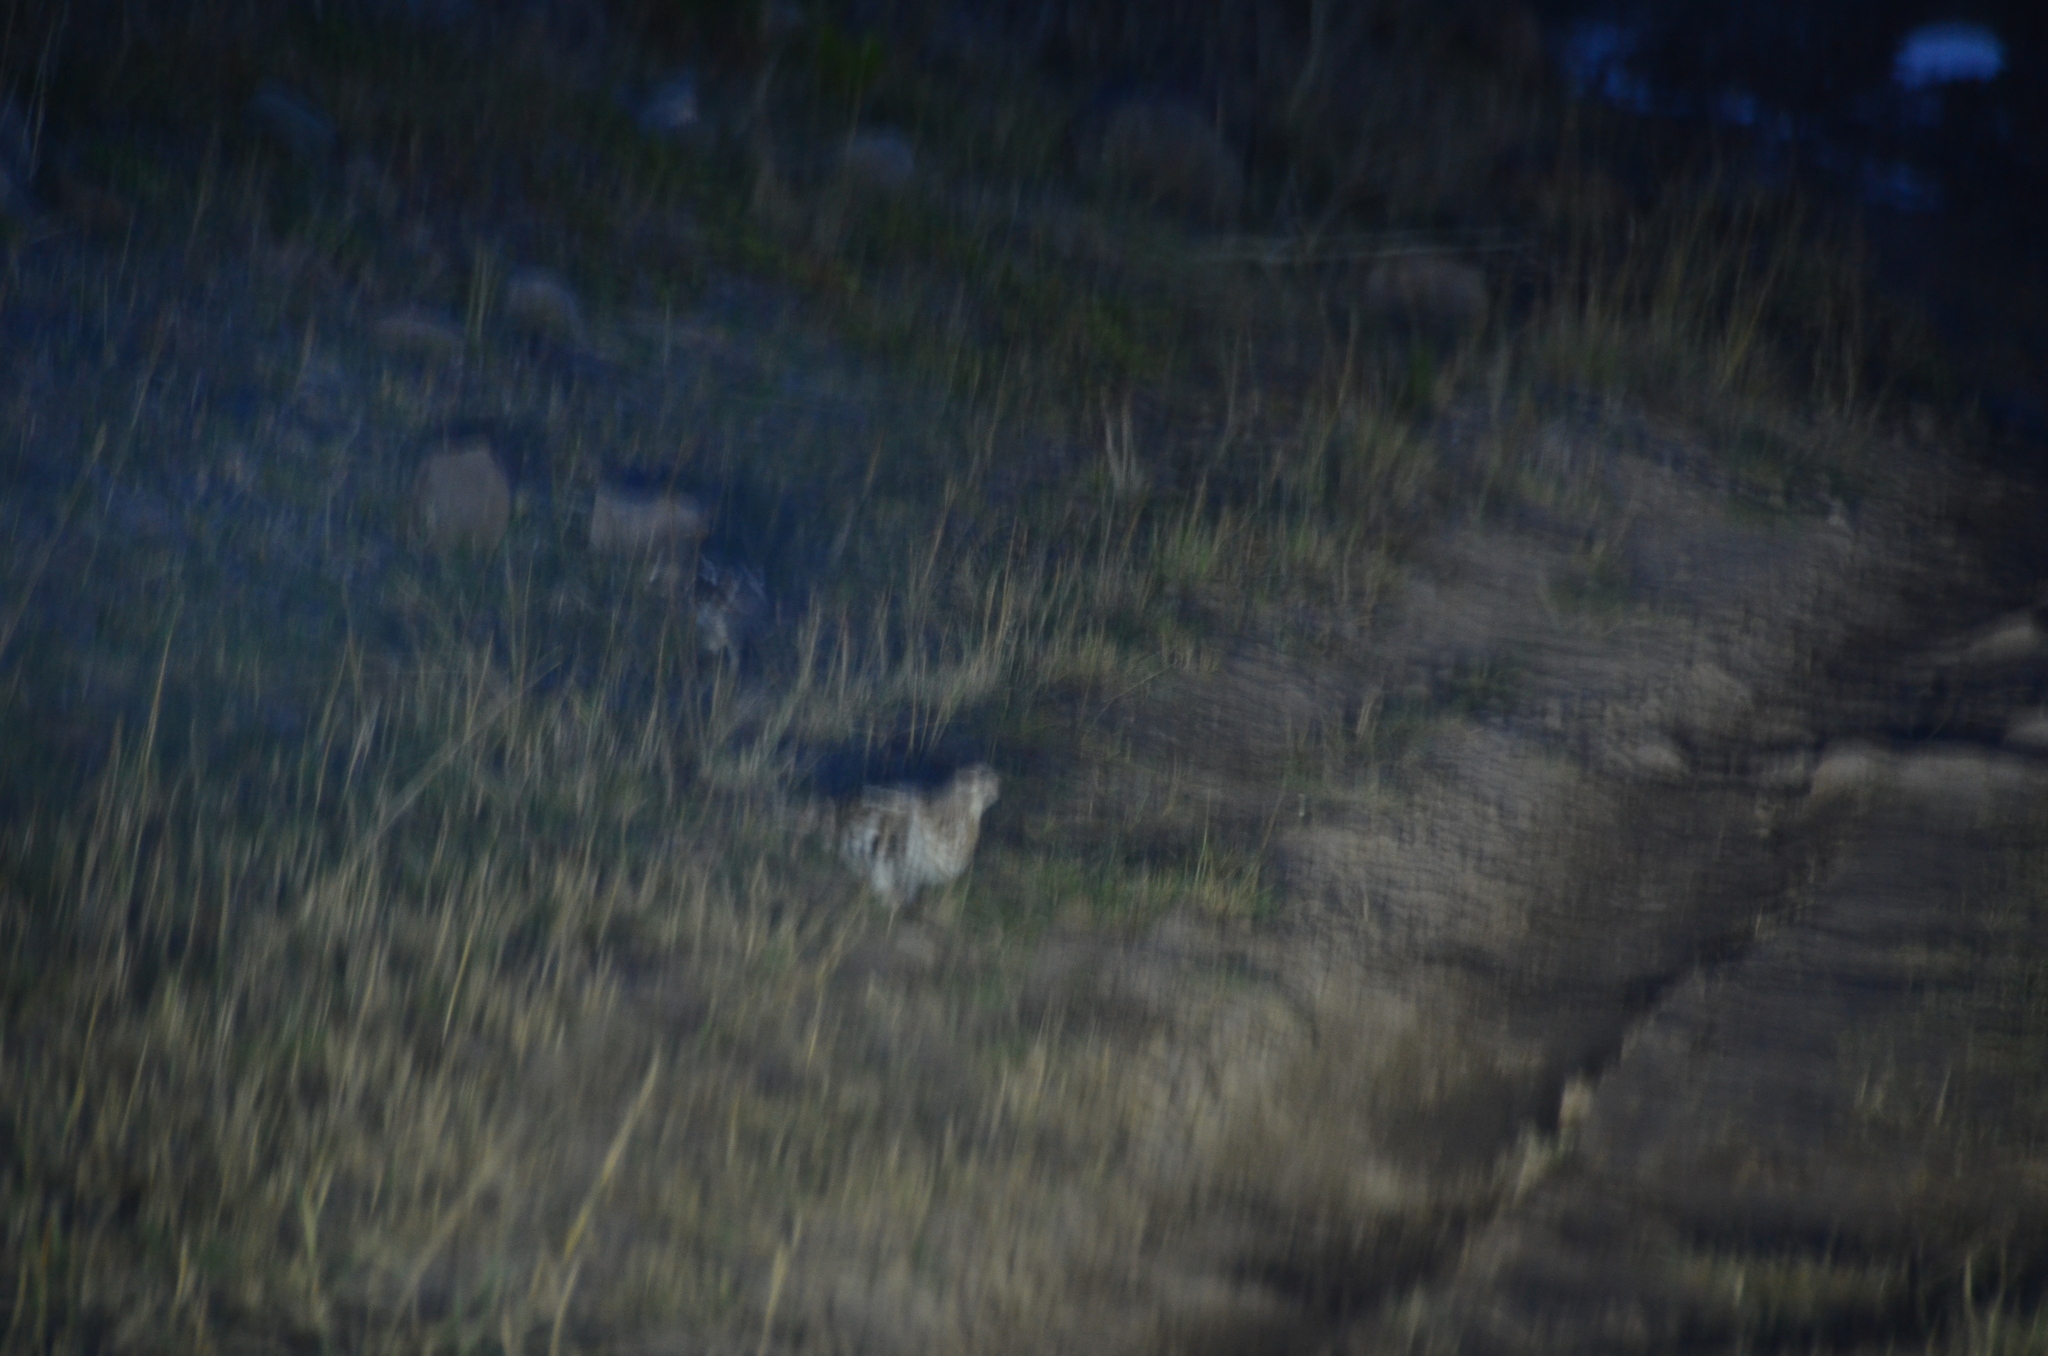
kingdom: Animalia
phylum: Chordata
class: Aves
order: Galliformes
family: Phasianidae
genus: Bonasa
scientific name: Bonasa umbellus
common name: Ruffed grouse
